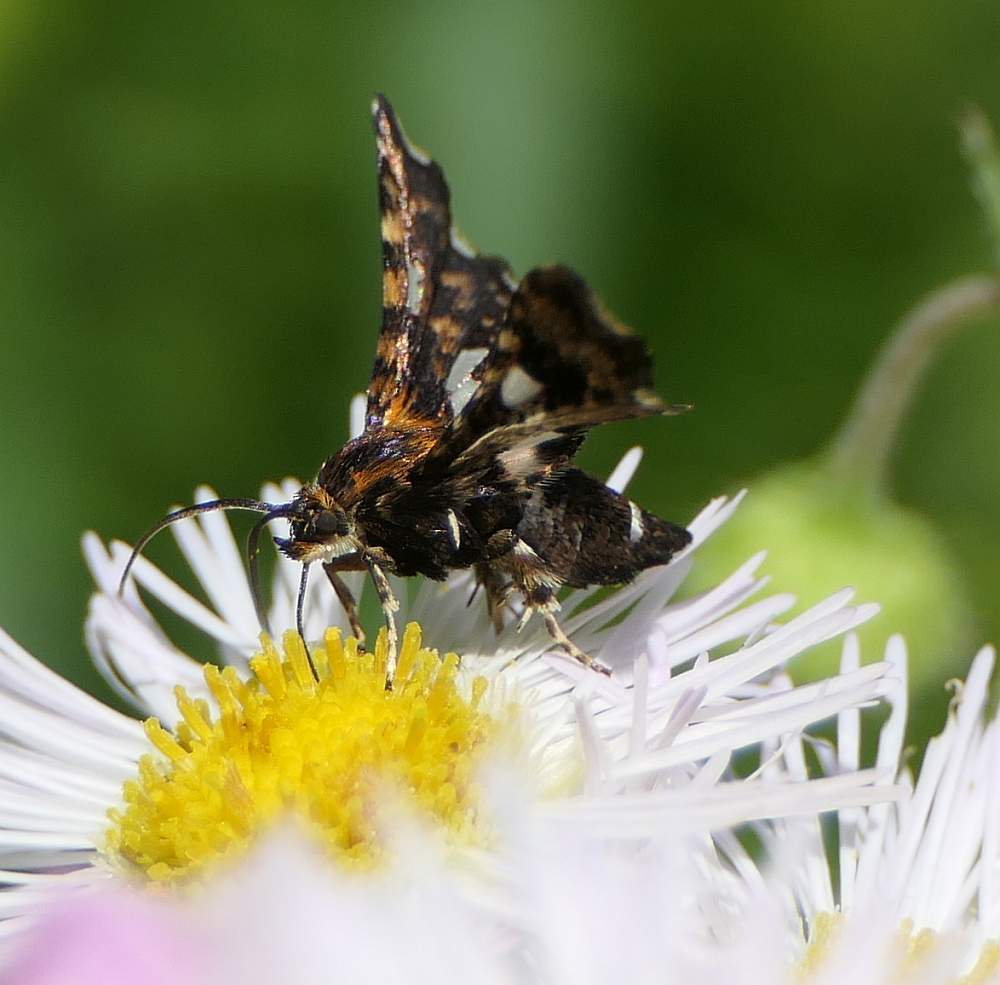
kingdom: Animalia
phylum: Arthropoda
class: Insecta
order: Lepidoptera
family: Thyrididae
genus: Thyris
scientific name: Thyris maculata
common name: Spotted thyris moth
